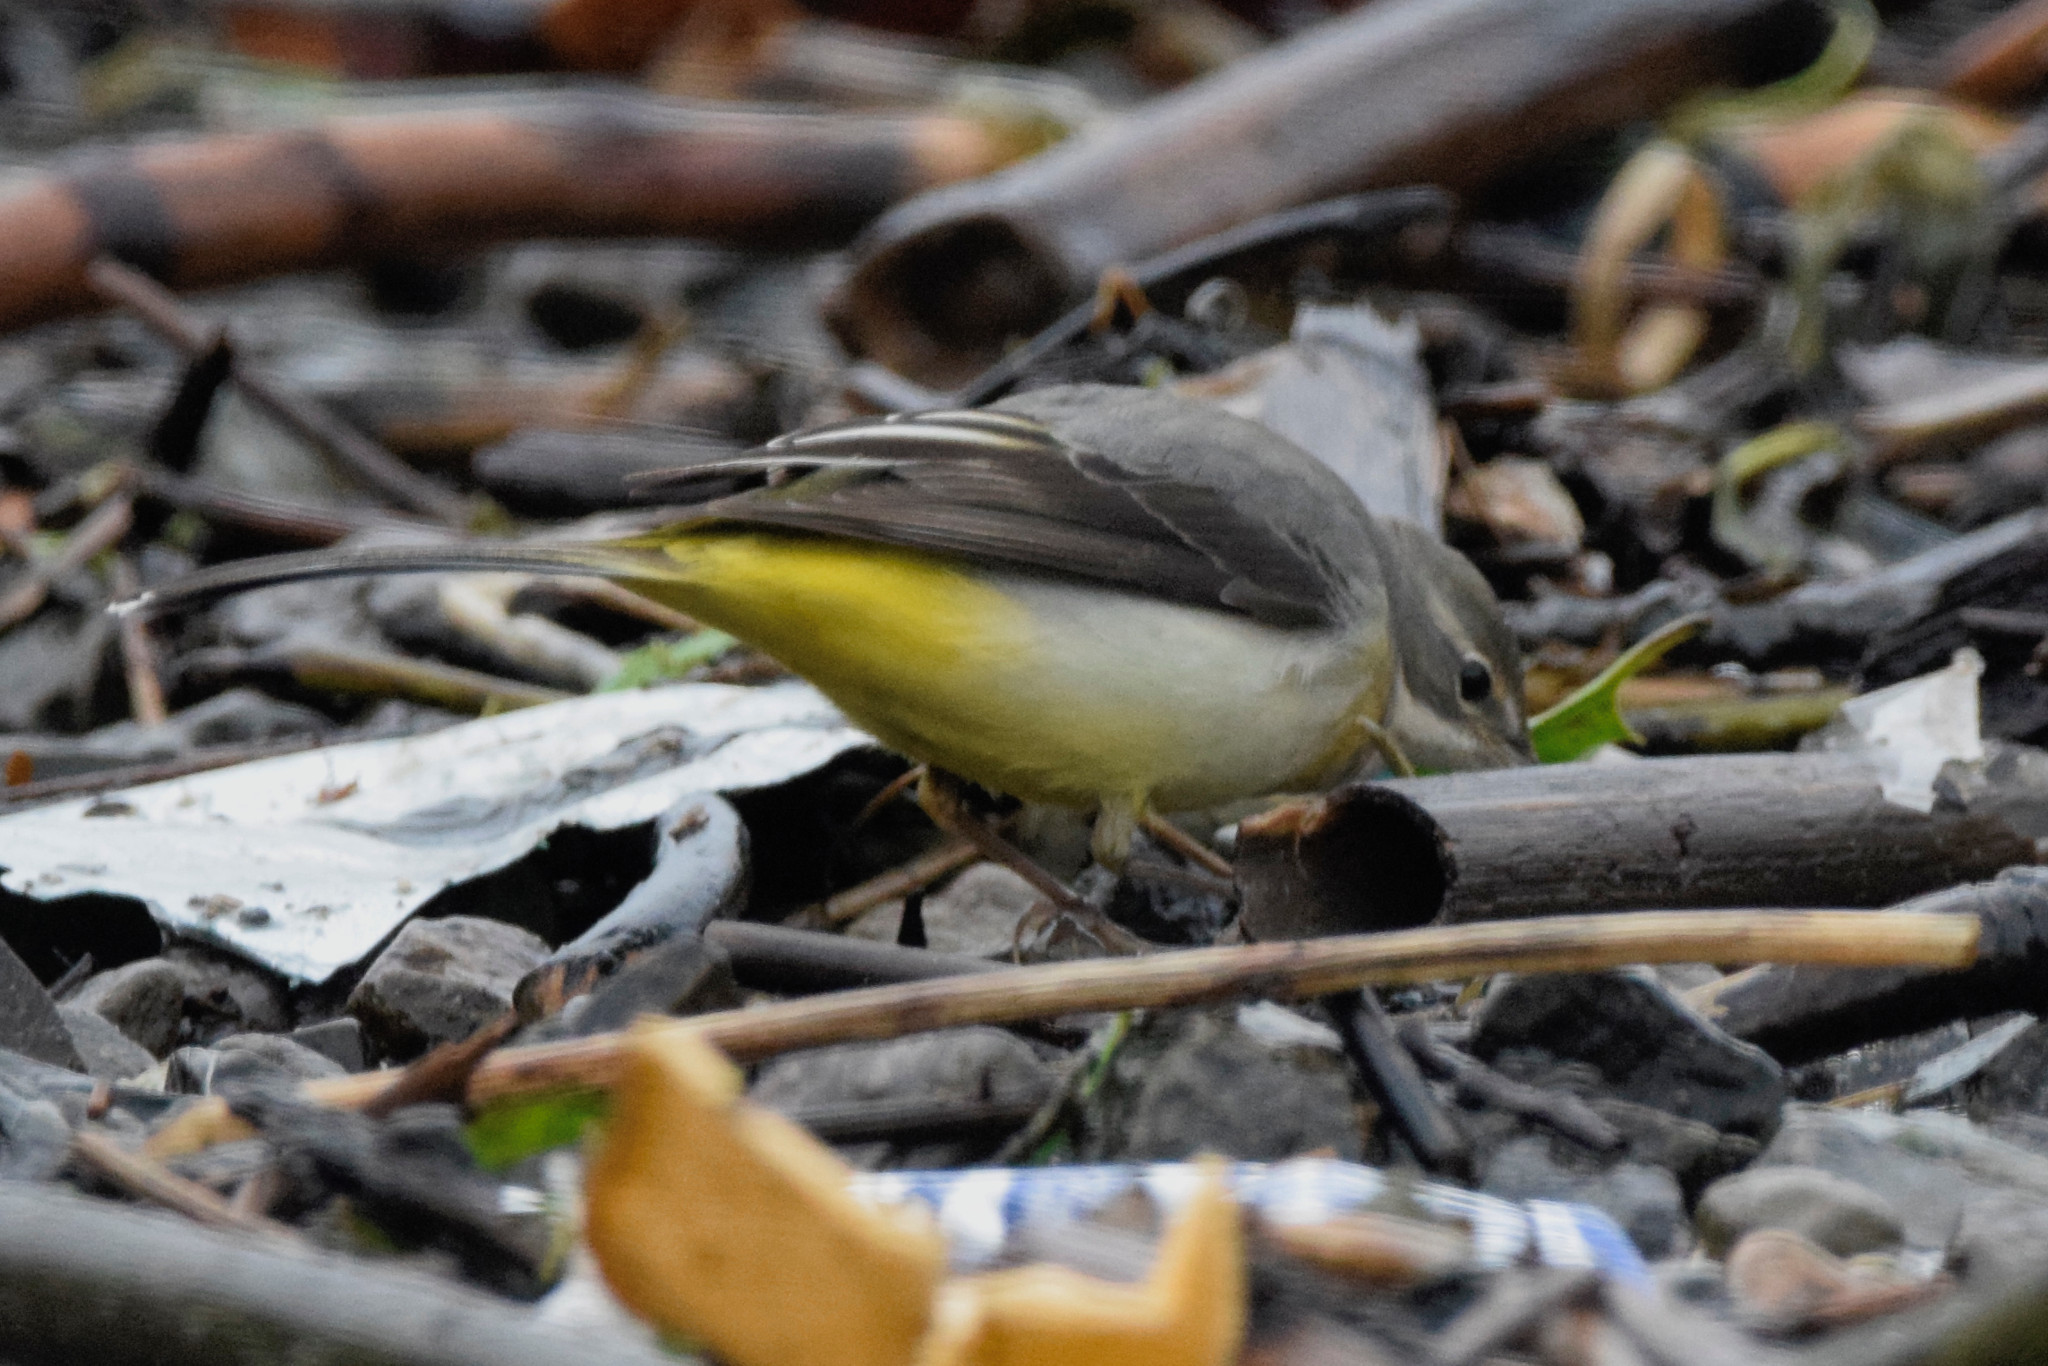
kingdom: Animalia
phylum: Chordata
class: Aves
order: Passeriformes
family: Motacillidae
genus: Motacilla
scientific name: Motacilla cinerea
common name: Grey wagtail
